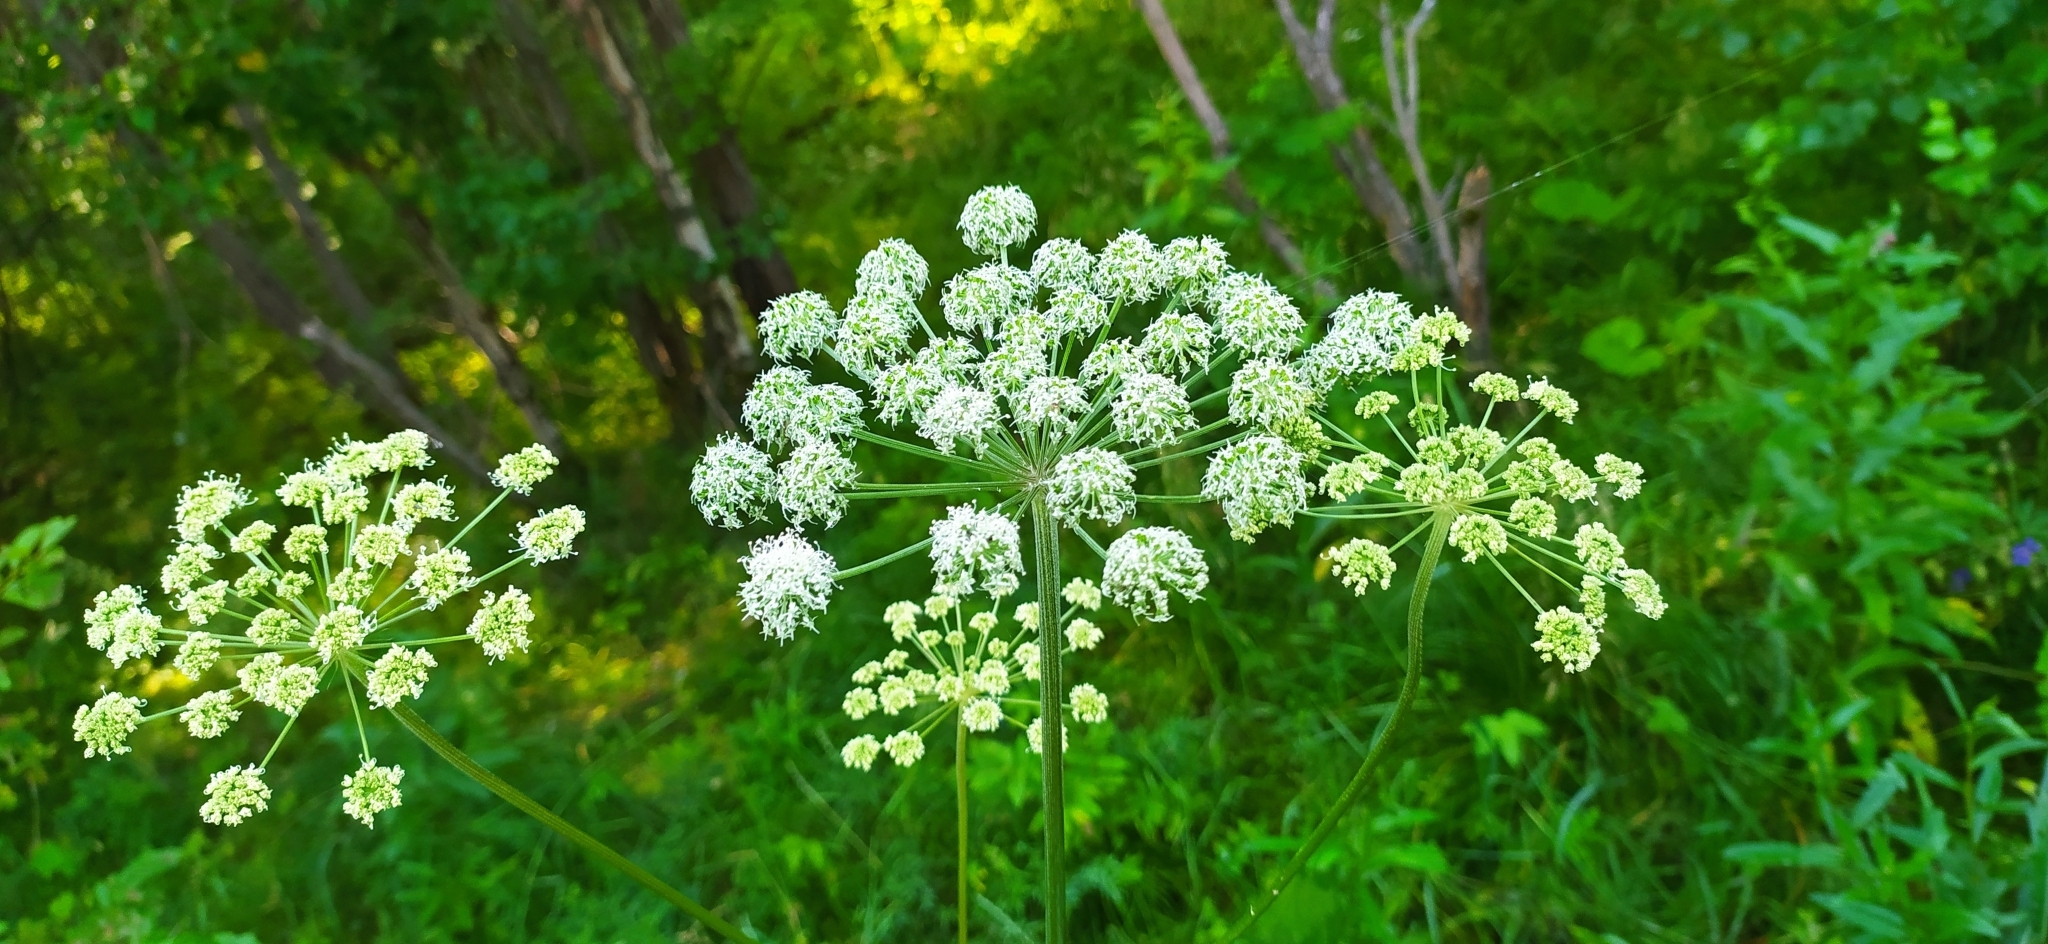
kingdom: Plantae
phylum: Tracheophyta
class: Magnoliopsida
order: Apiales
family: Apiaceae
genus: Angelica
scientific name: Angelica sylvestris
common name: Wild angelica
